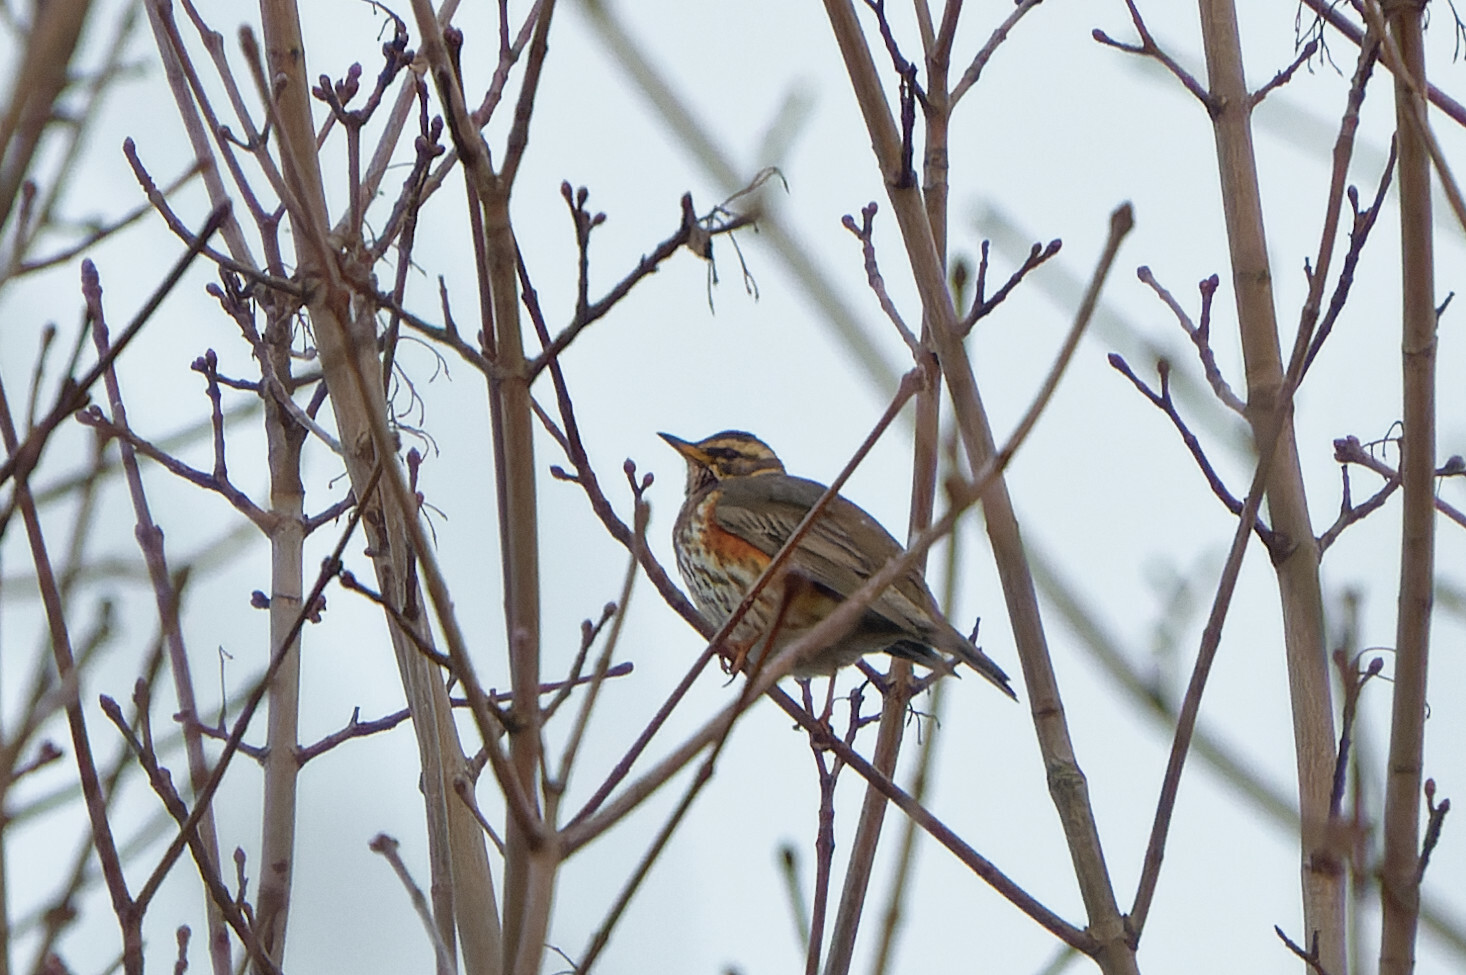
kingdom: Animalia
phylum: Chordata
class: Aves
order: Passeriformes
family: Turdidae
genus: Turdus
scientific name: Turdus iliacus
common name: Redwing
